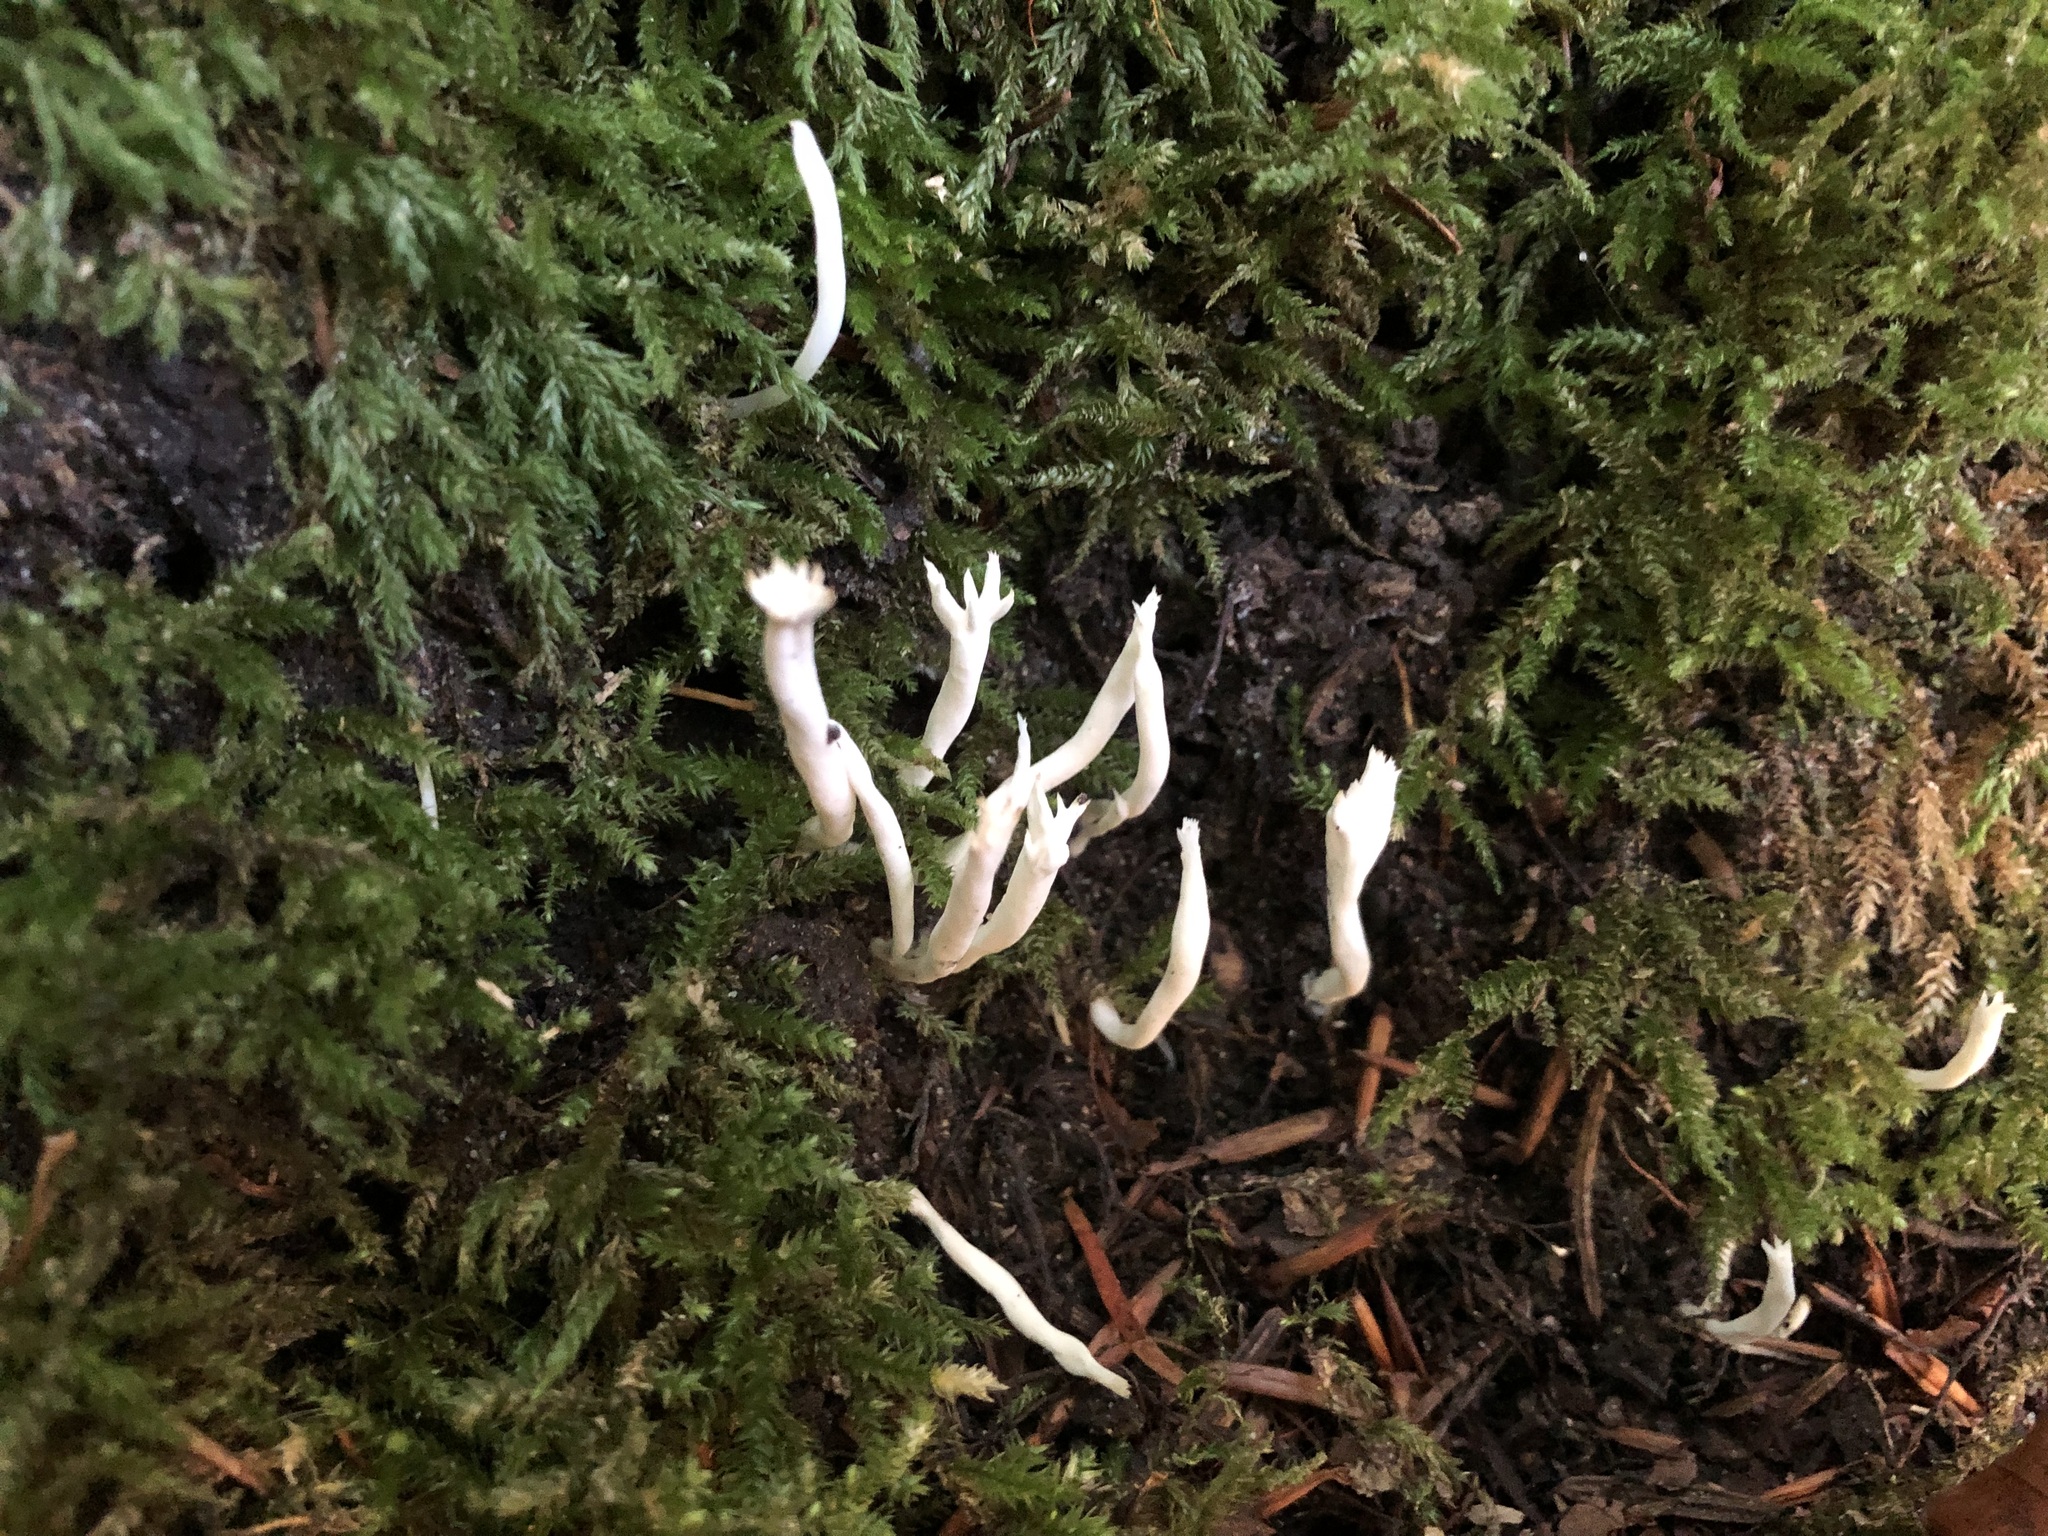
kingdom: Fungi
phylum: Basidiomycota
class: Agaricomycetes
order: Cantharellales
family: Hydnaceae
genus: Clavulina
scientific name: Clavulina rugosa
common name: Wrinkled club
